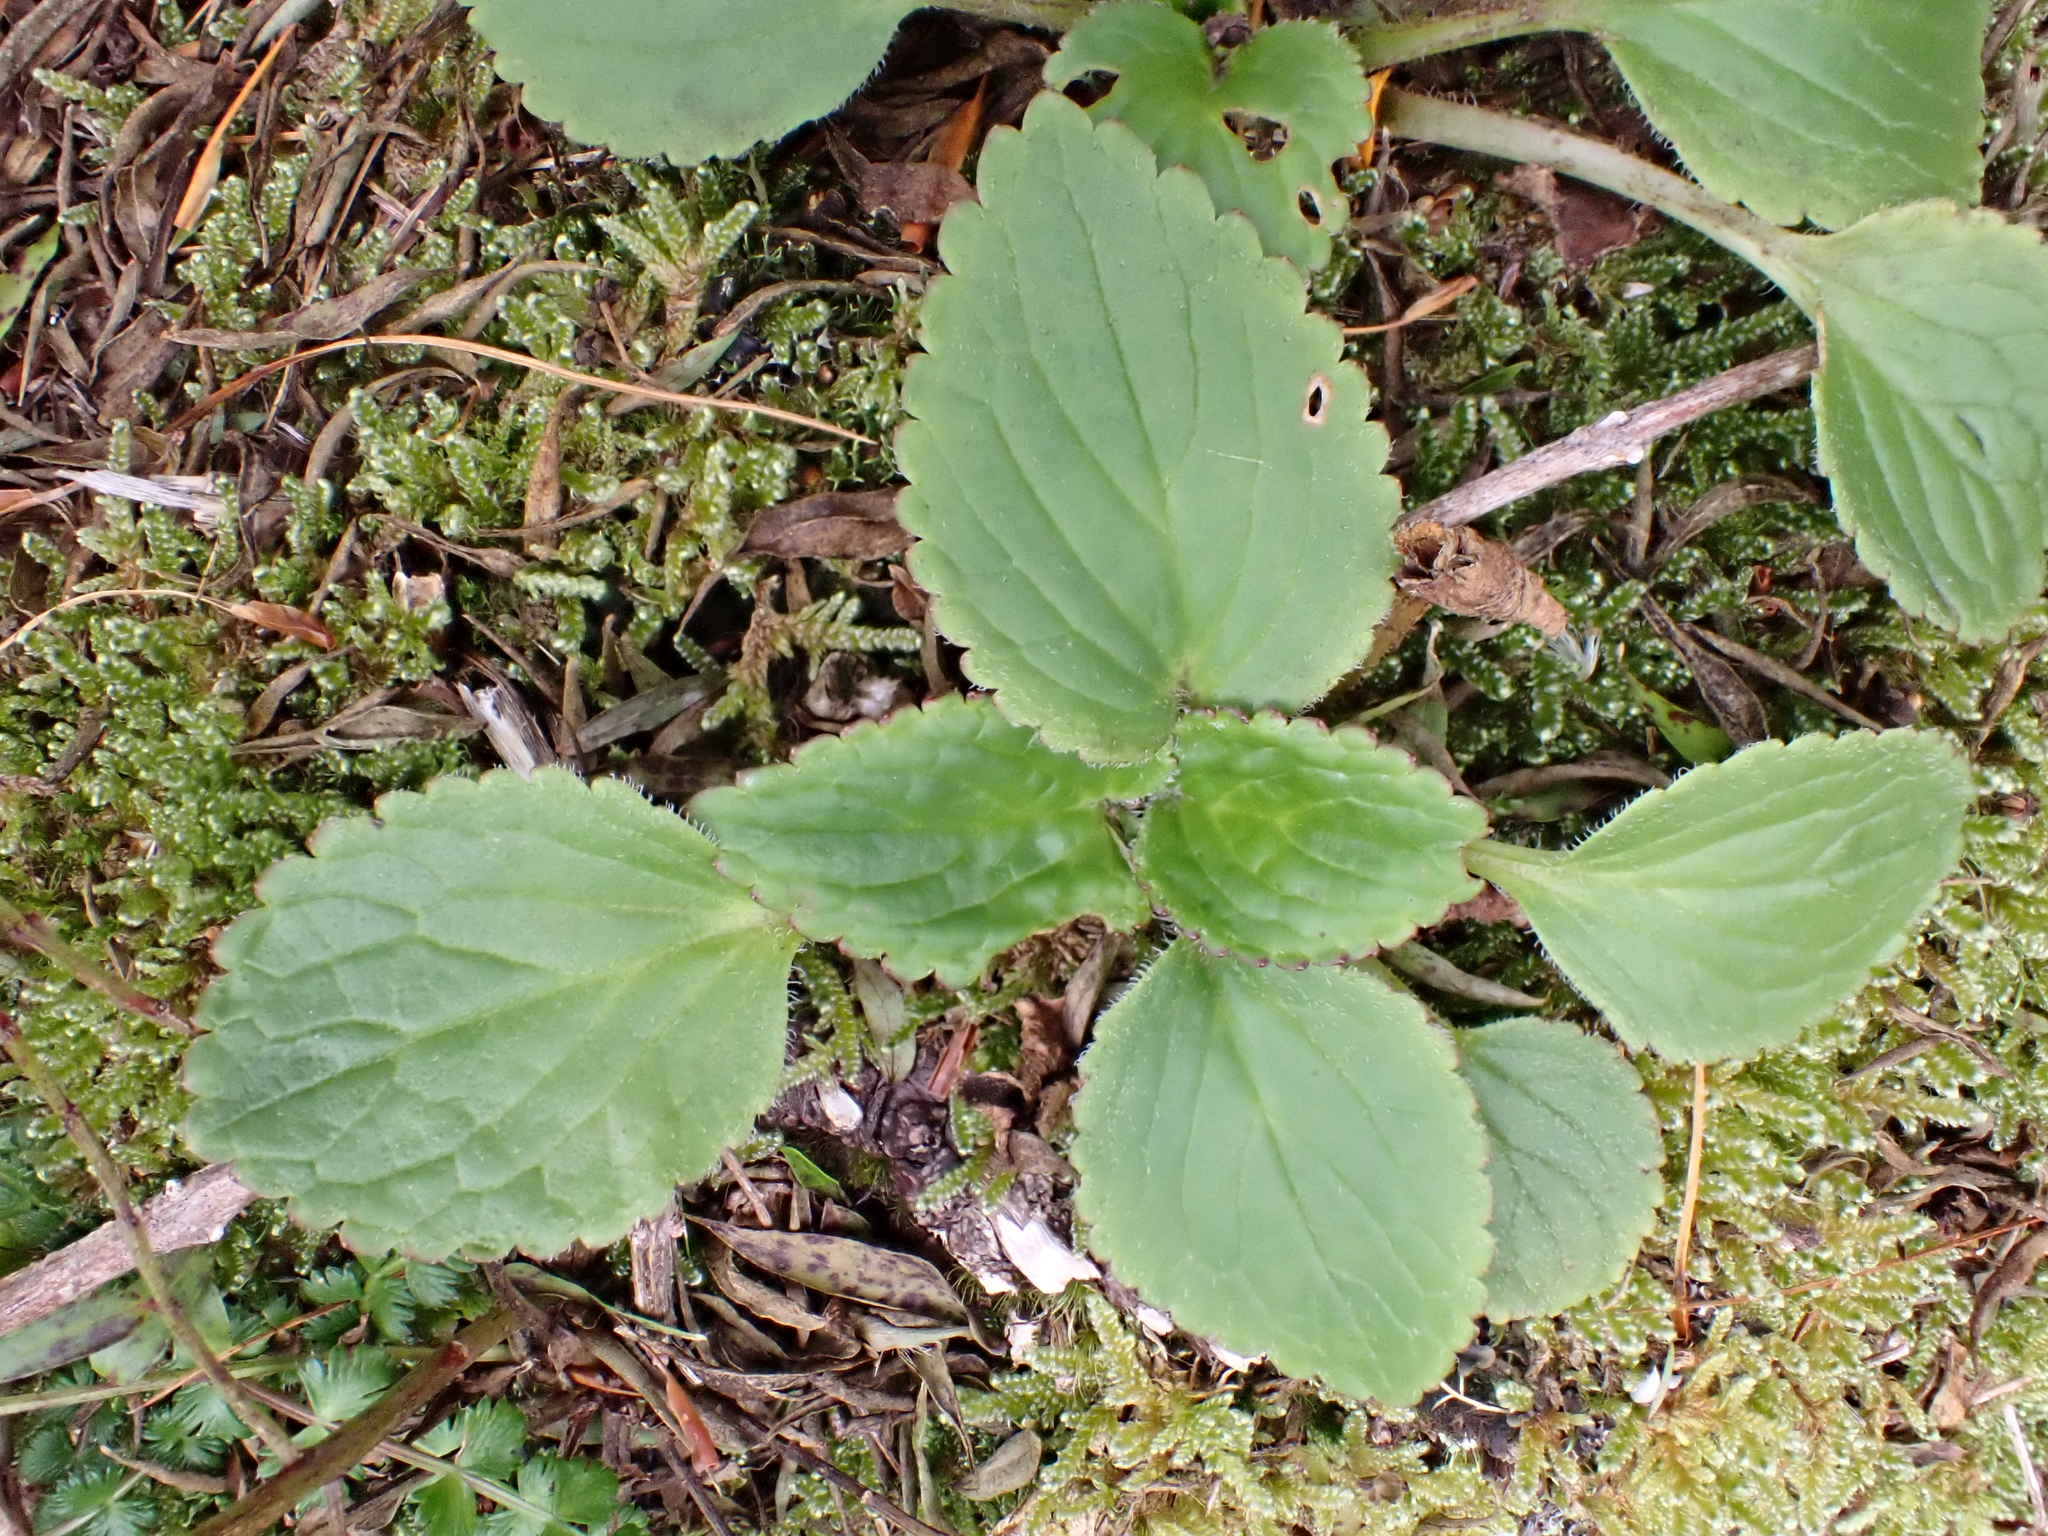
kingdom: Plantae
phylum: Tracheophyta
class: Magnoliopsida
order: Lamiales
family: Plantaginaceae
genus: Ourisia
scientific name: Ourisia macrophylla
